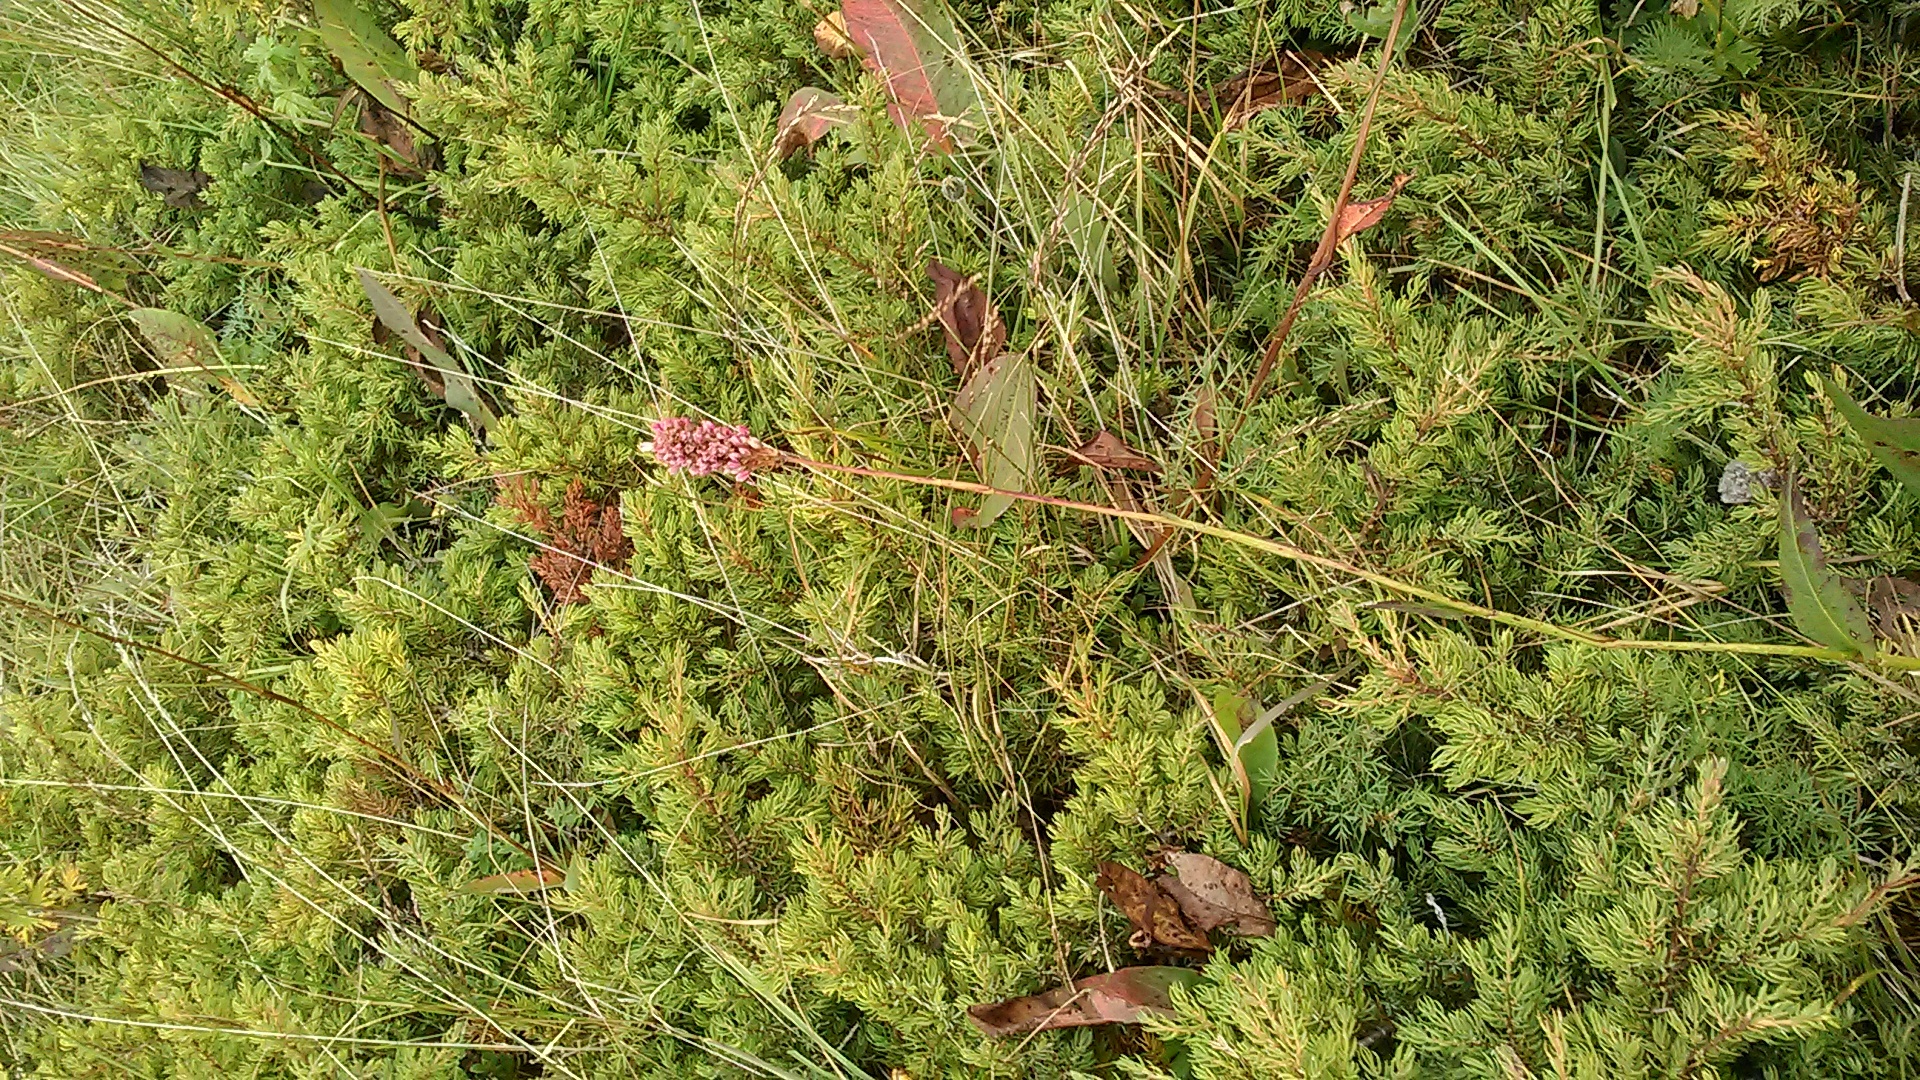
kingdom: Plantae
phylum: Tracheophyta
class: Magnoliopsida
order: Caryophyllales
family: Polygonaceae
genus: Bistorta
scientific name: Bistorta carnea
